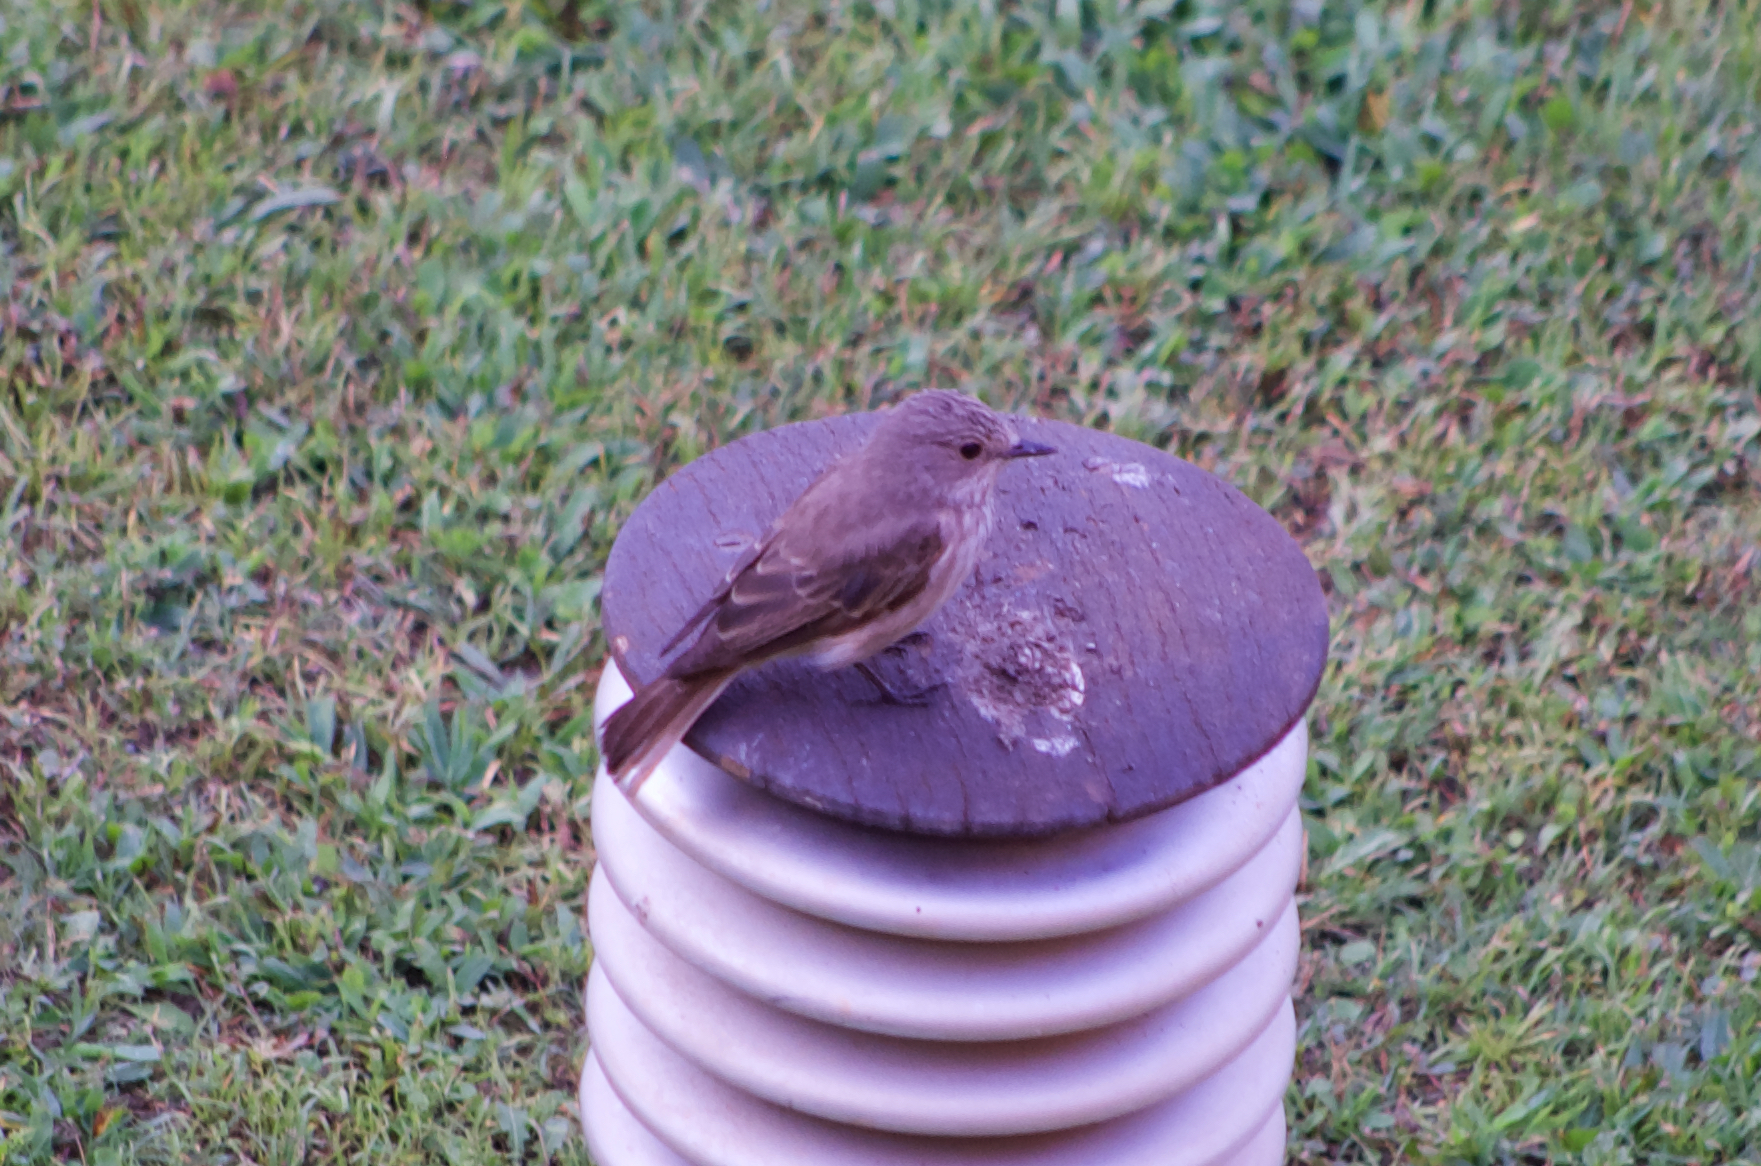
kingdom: Animalia
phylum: Chordata
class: Aves
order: Passeriformes
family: Muscicapidae
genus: Muscicapa
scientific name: Muscicapa striata
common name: Spotted flycatcher
